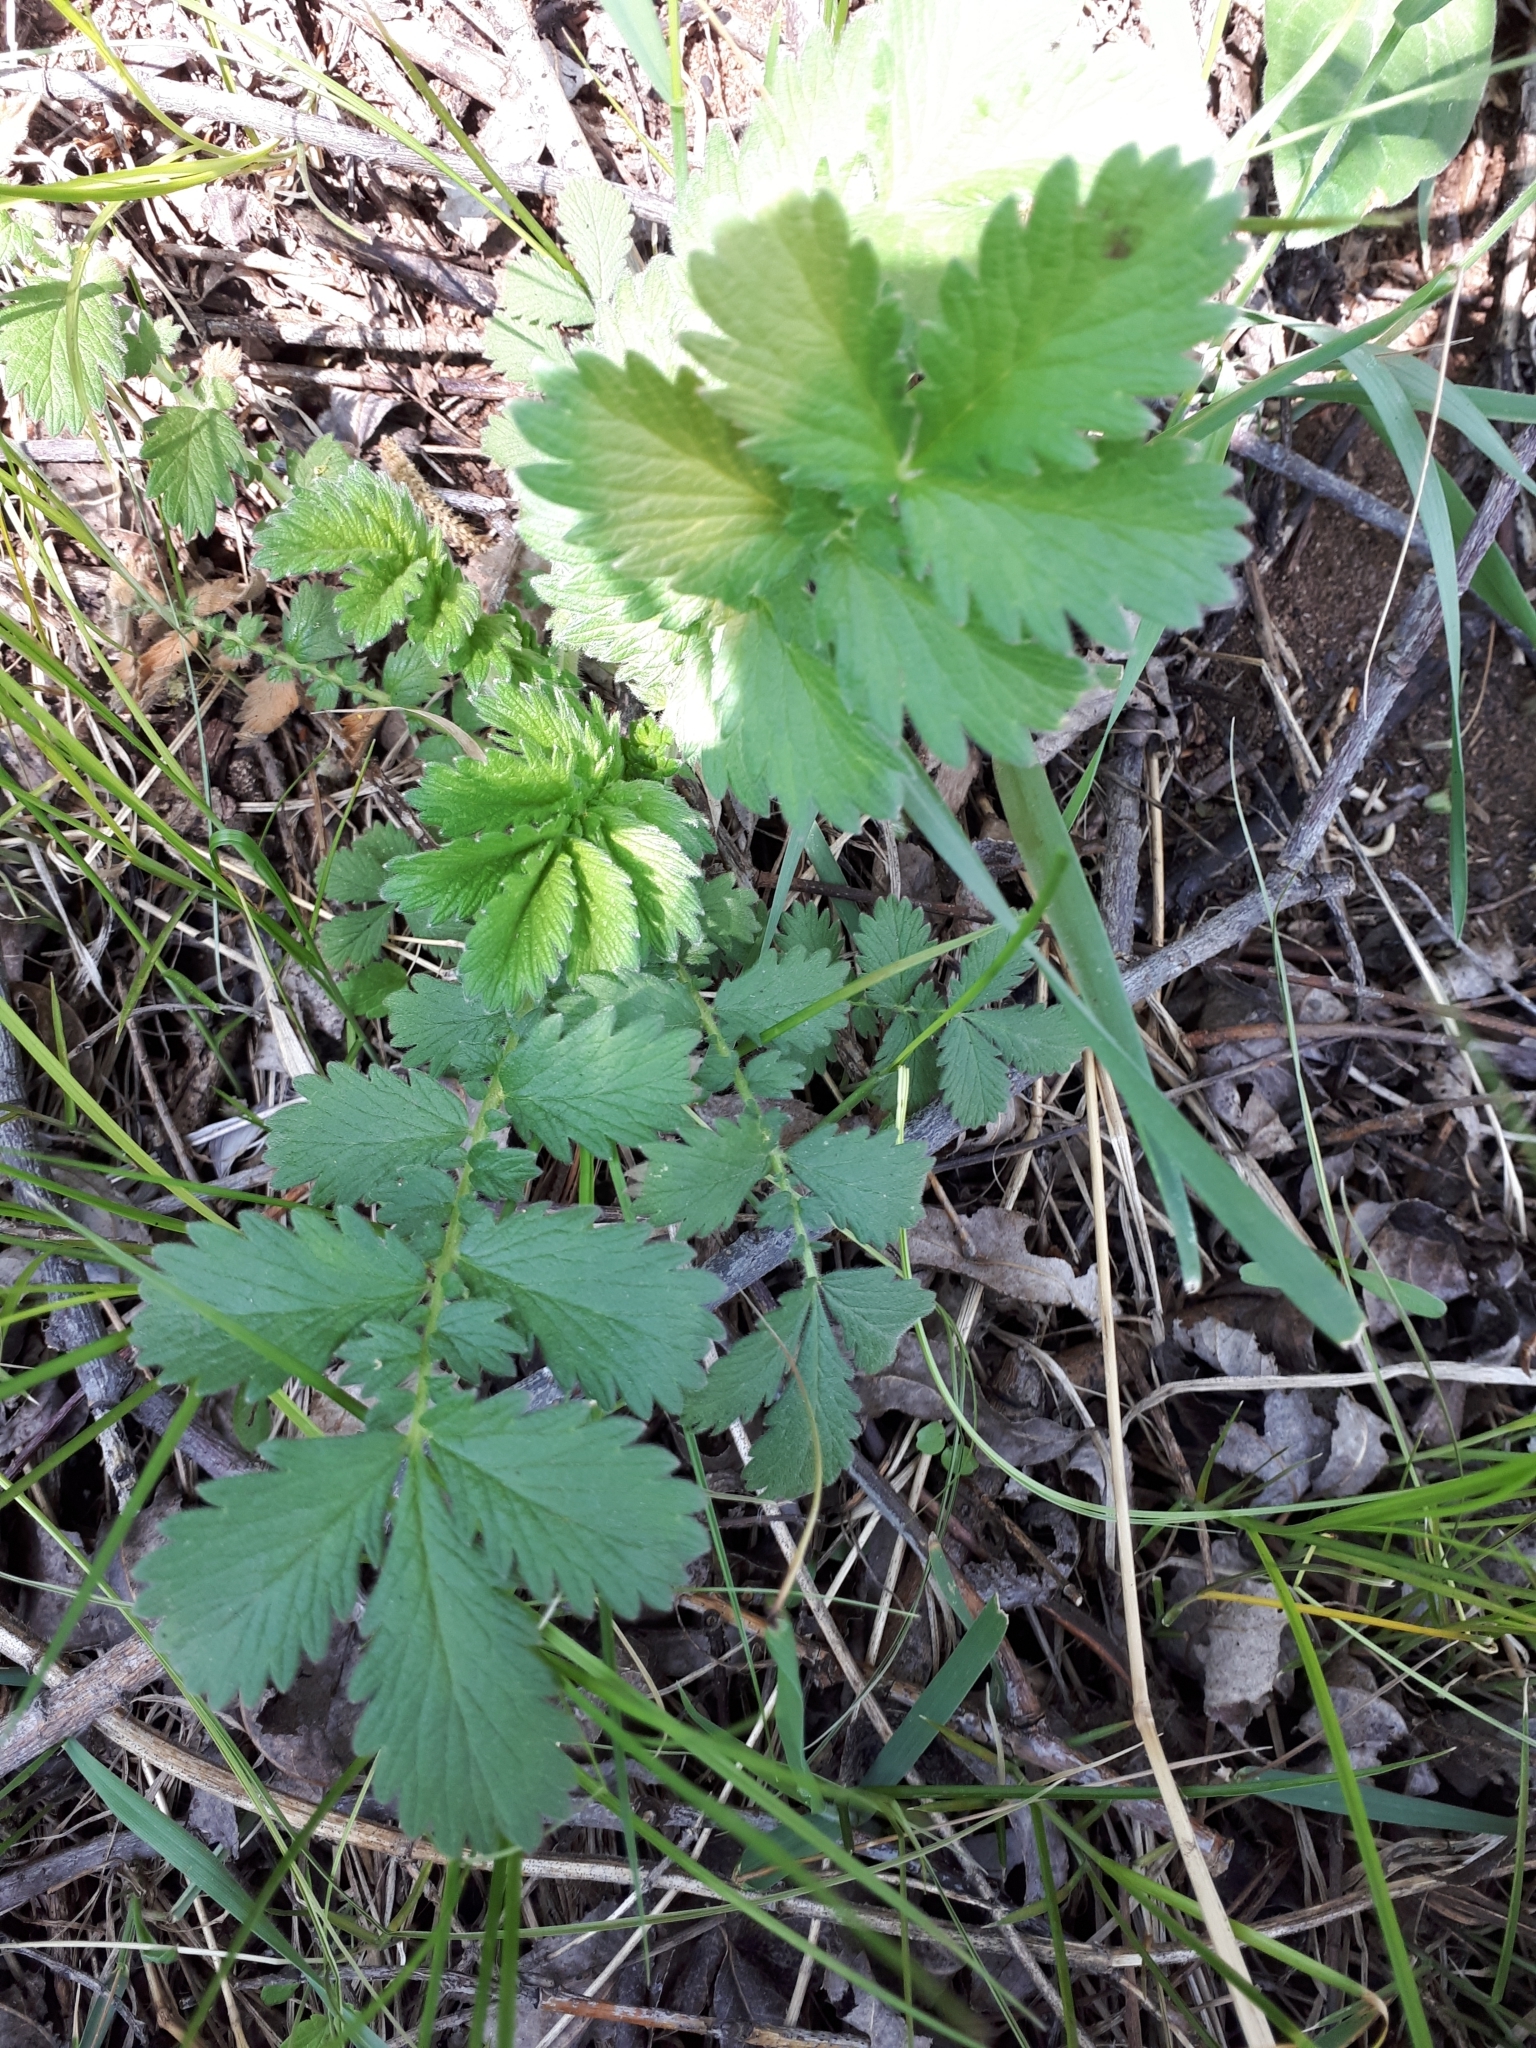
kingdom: Plantae
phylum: Tracheophyta
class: Magnoliopsida
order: Rosales
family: Rosaceae
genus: Agrimonia
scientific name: Agrimonia eupatoria
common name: Agrimony
